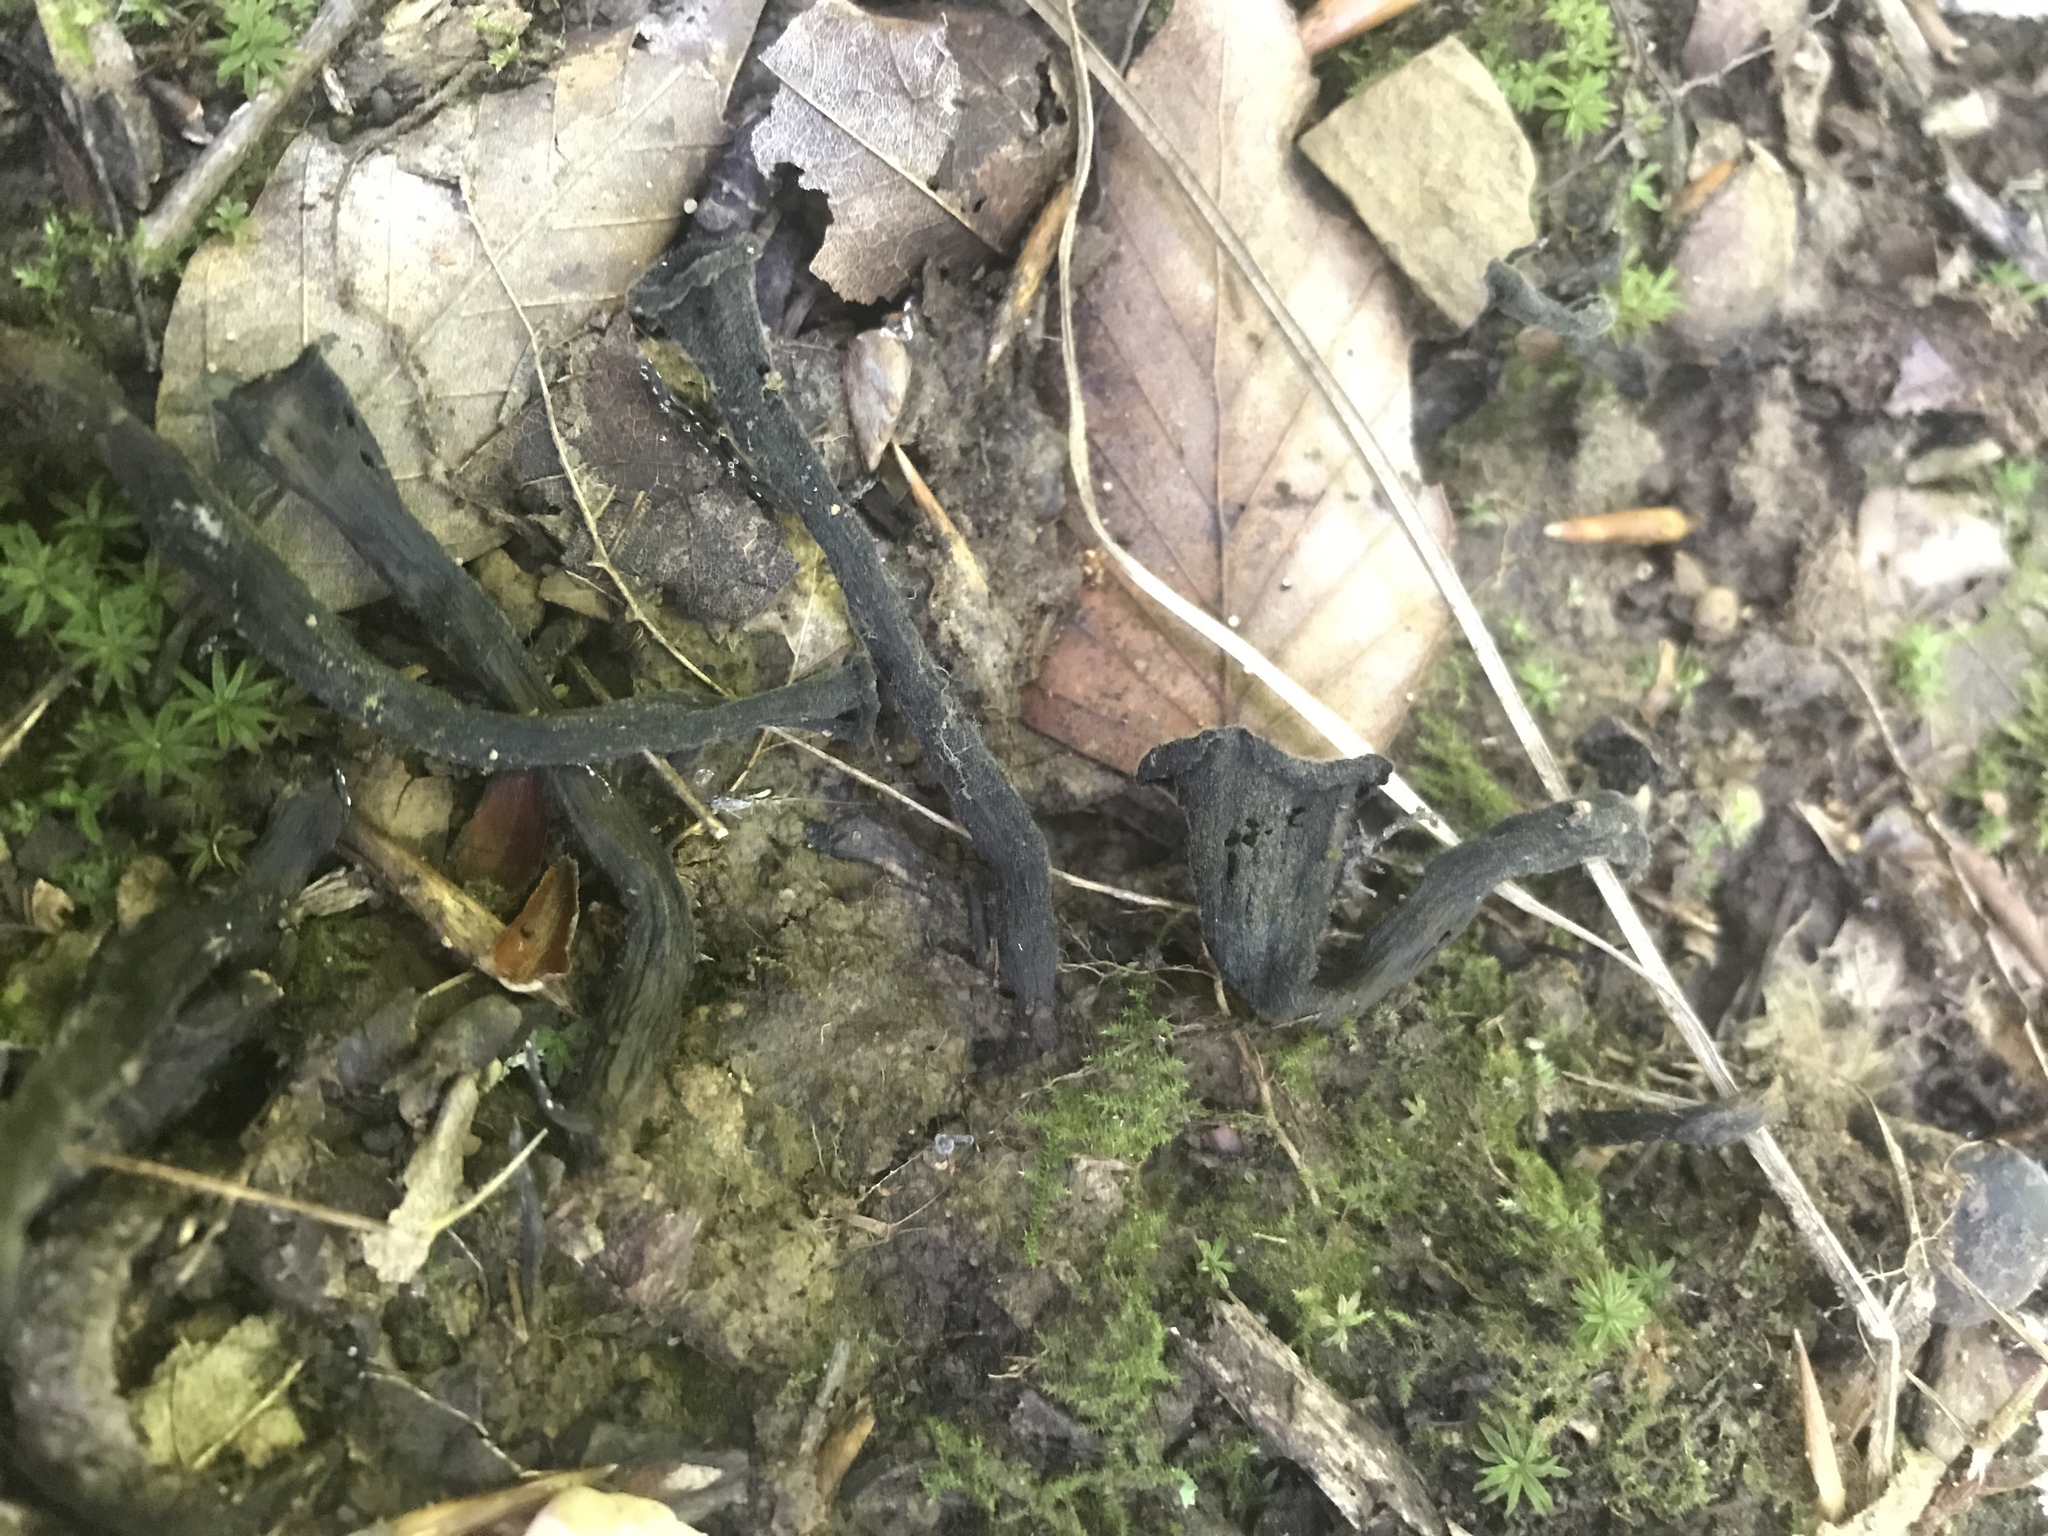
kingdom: Fungi
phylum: Basidiomycota
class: Agaricomycetes
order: Cantharellales
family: Hydnaceae
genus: Craterellus
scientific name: Craterellus cornucopioides
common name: Horn of plenty
